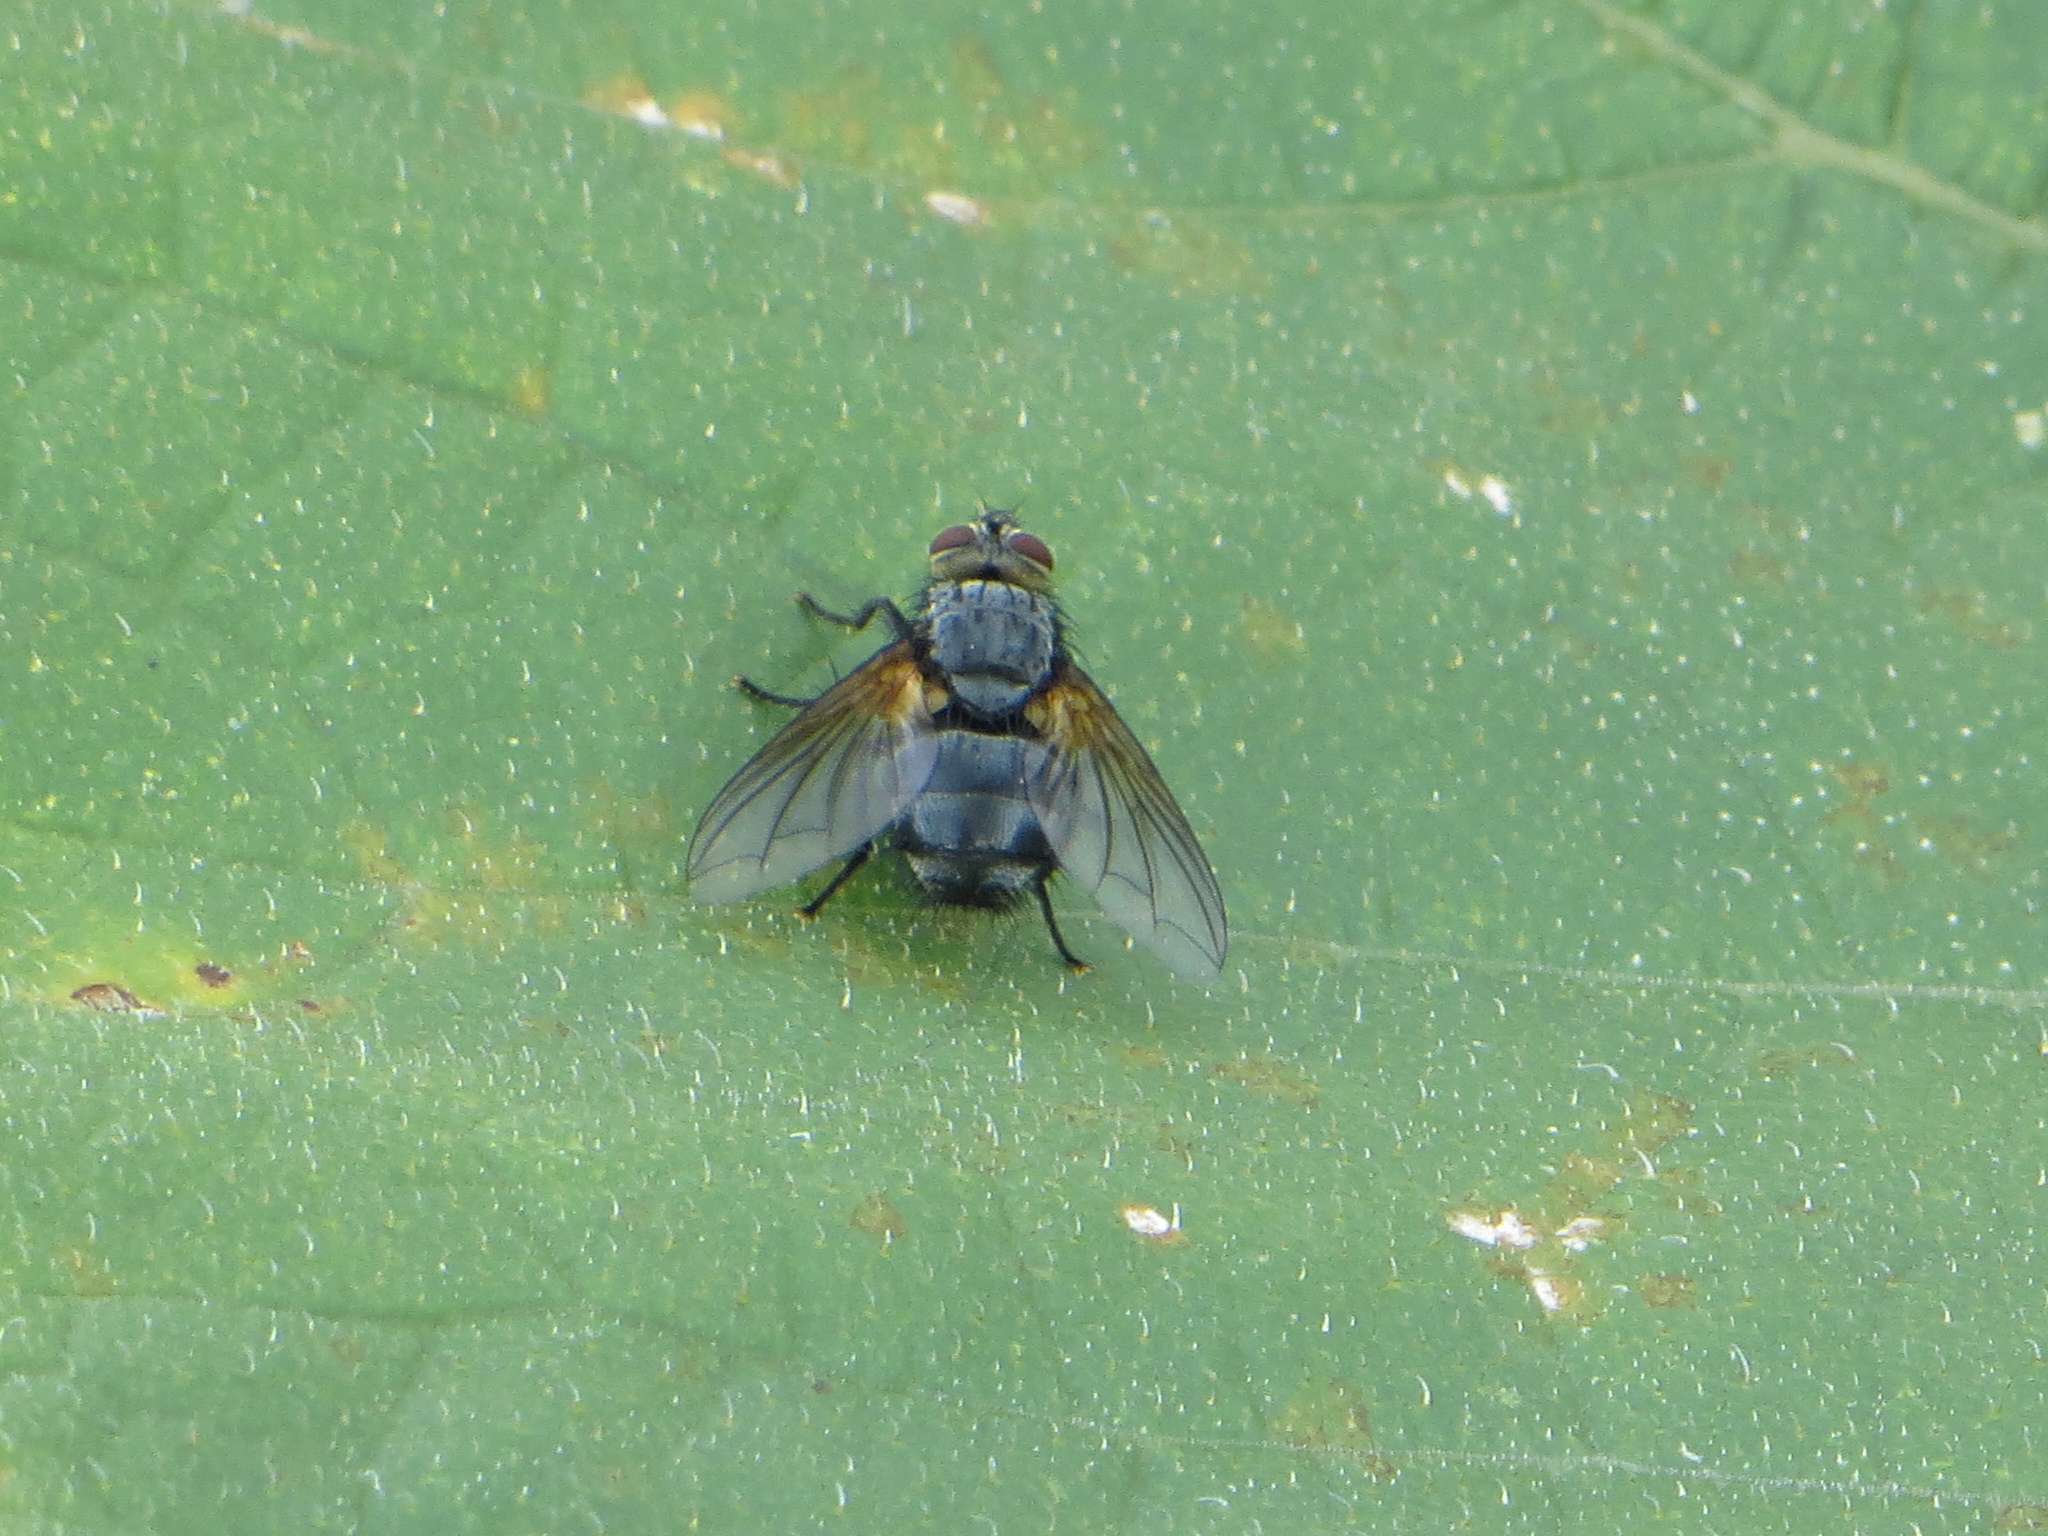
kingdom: Animalia
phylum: Arthropoda
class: Insecta
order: Diptera
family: Tachinidae
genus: Nemoraea
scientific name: Nemoraea pellucida
